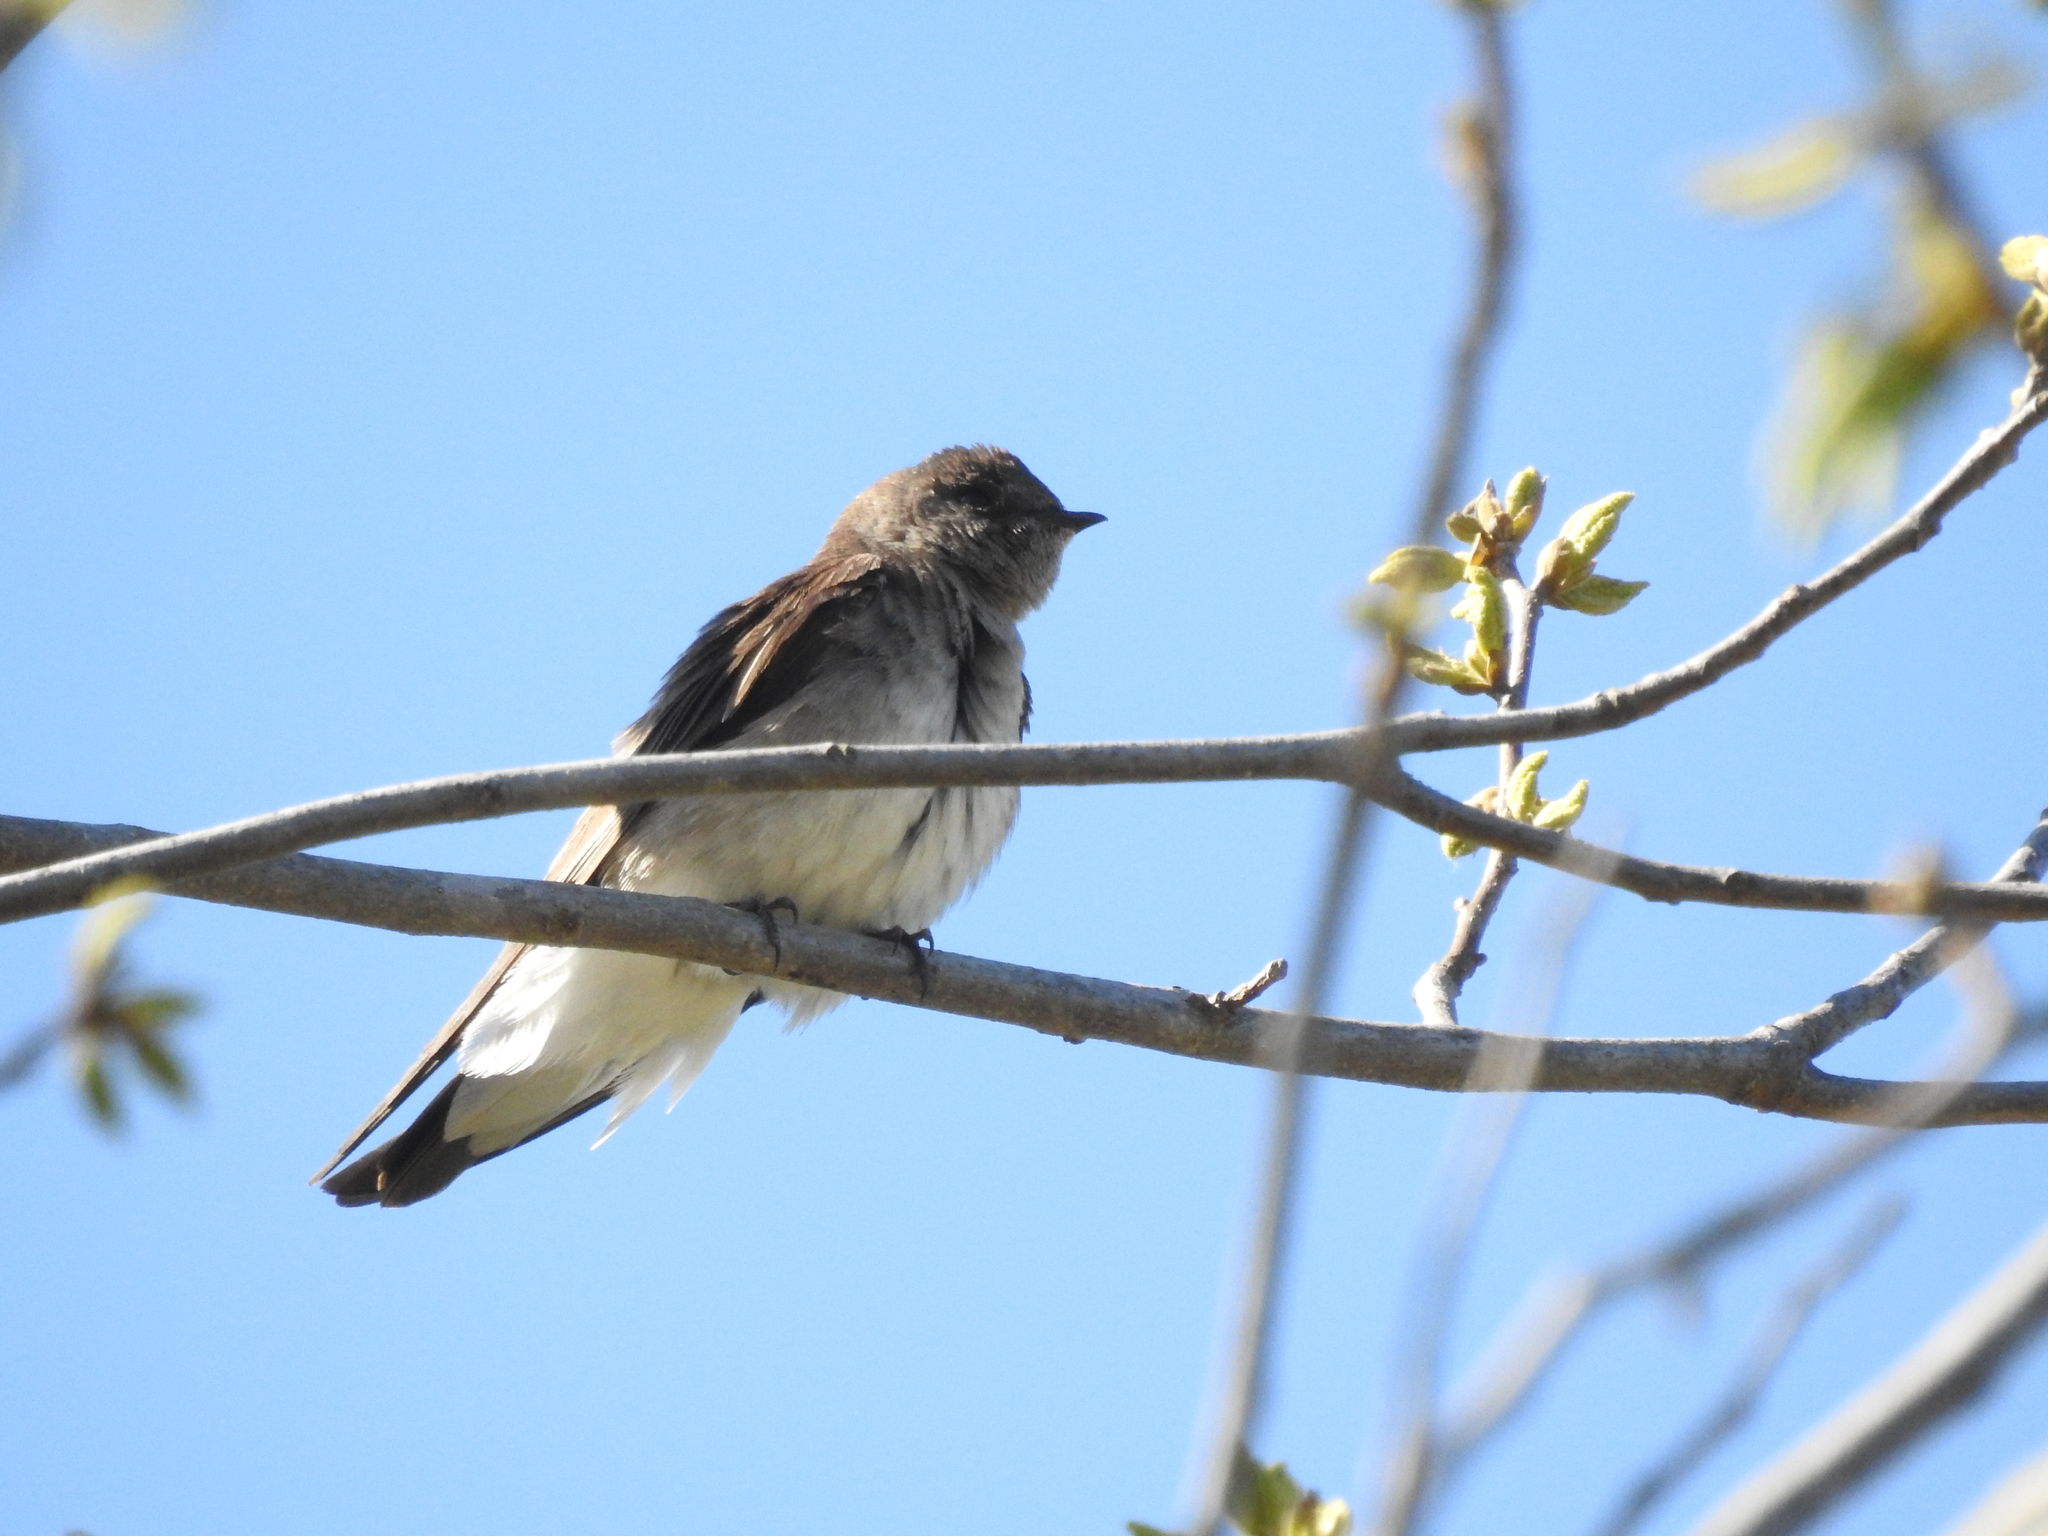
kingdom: Animalia
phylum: Chordata
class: Aves
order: Passeriformes
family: Hirundinidae
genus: Stelgidopteryx
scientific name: Stelgidopteryx serripennis
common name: Northern rough-winged swallow
